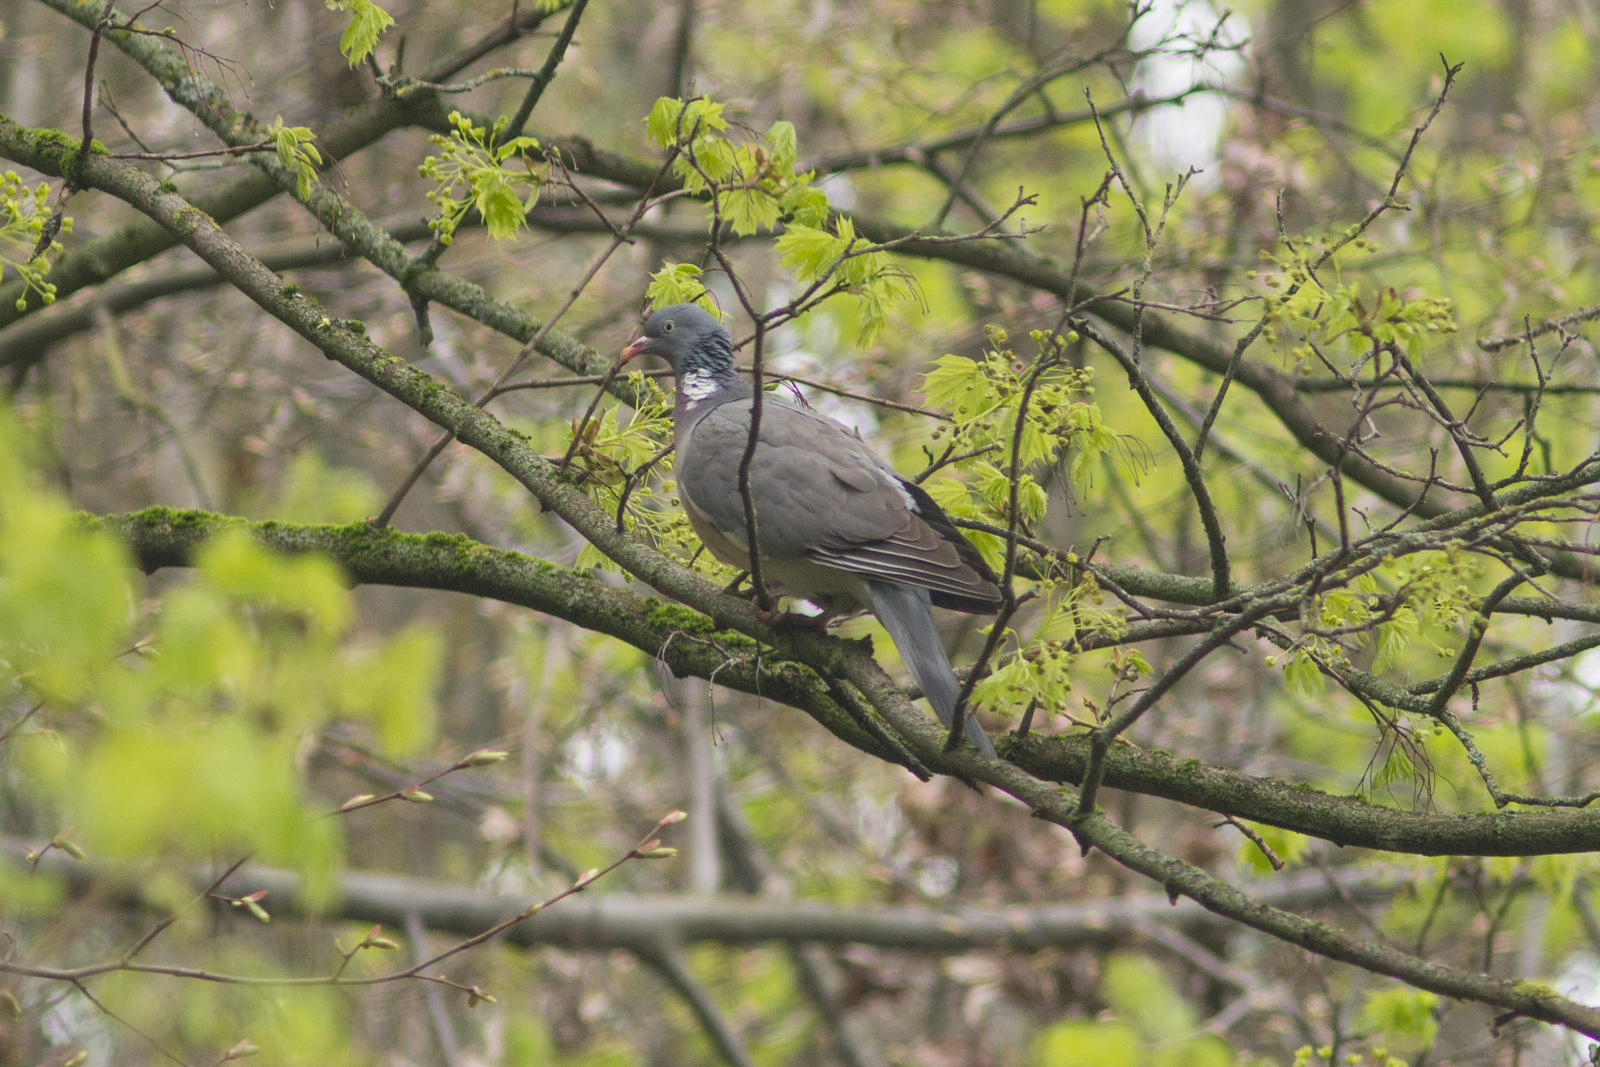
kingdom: Animalia
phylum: Chordata
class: Aves
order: Columbiformes
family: Columbidae
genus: Columba
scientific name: Columba palumbus
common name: Common wood pigeon
